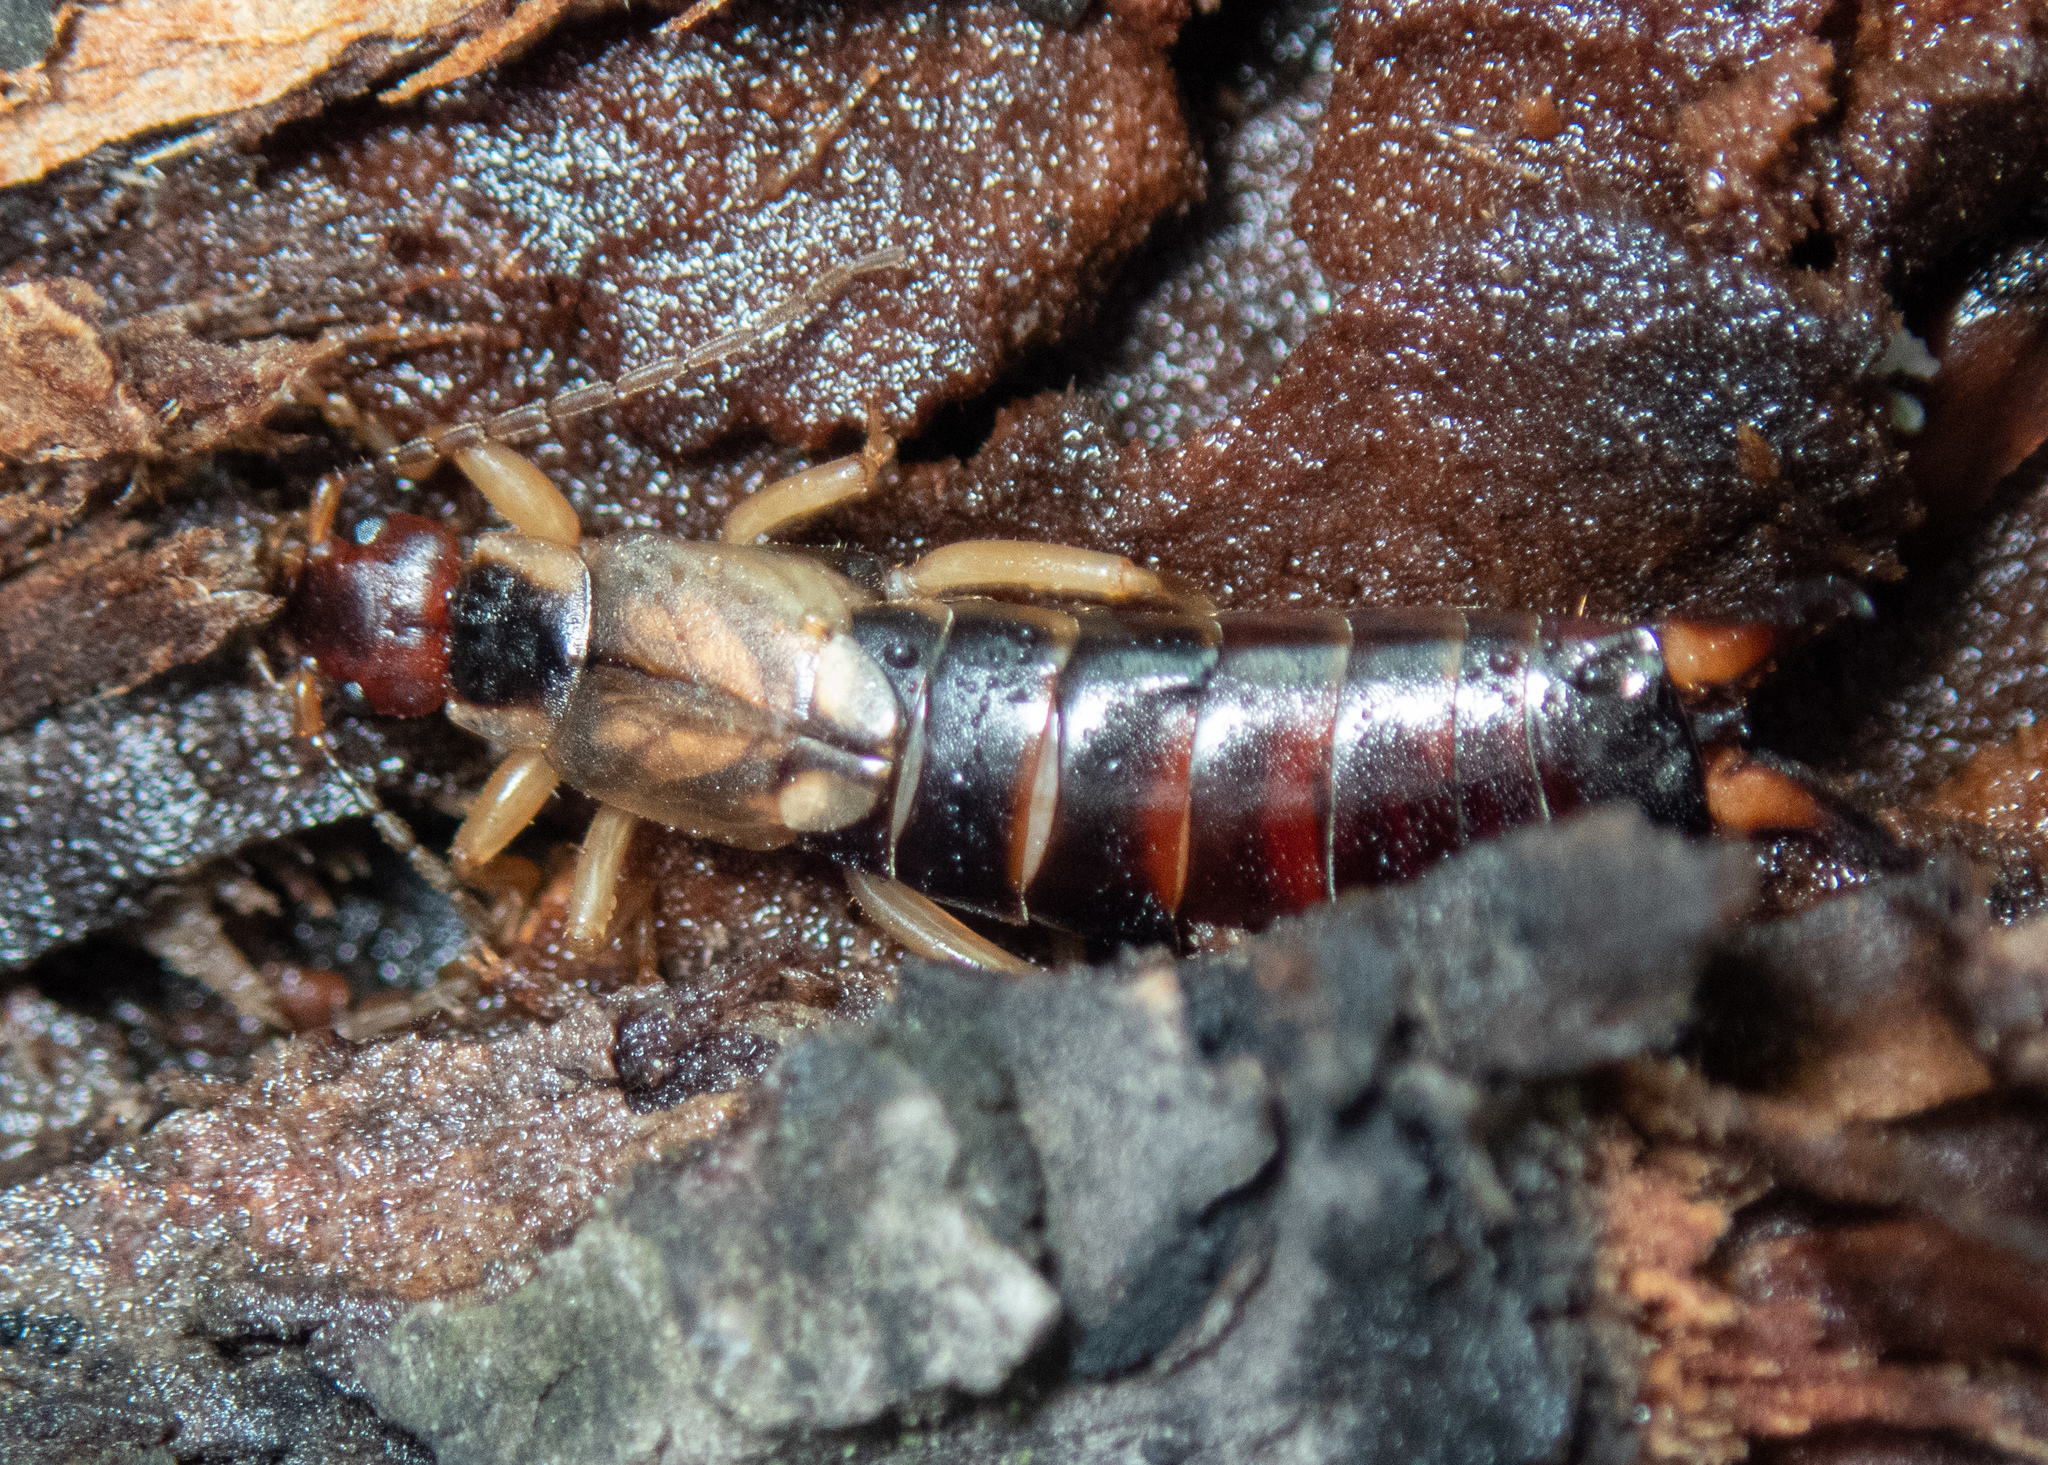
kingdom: Animalia
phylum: Arthropoda
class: Insecta
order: Dermaptera
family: Forficulidae
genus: Forficula
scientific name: Forficula
